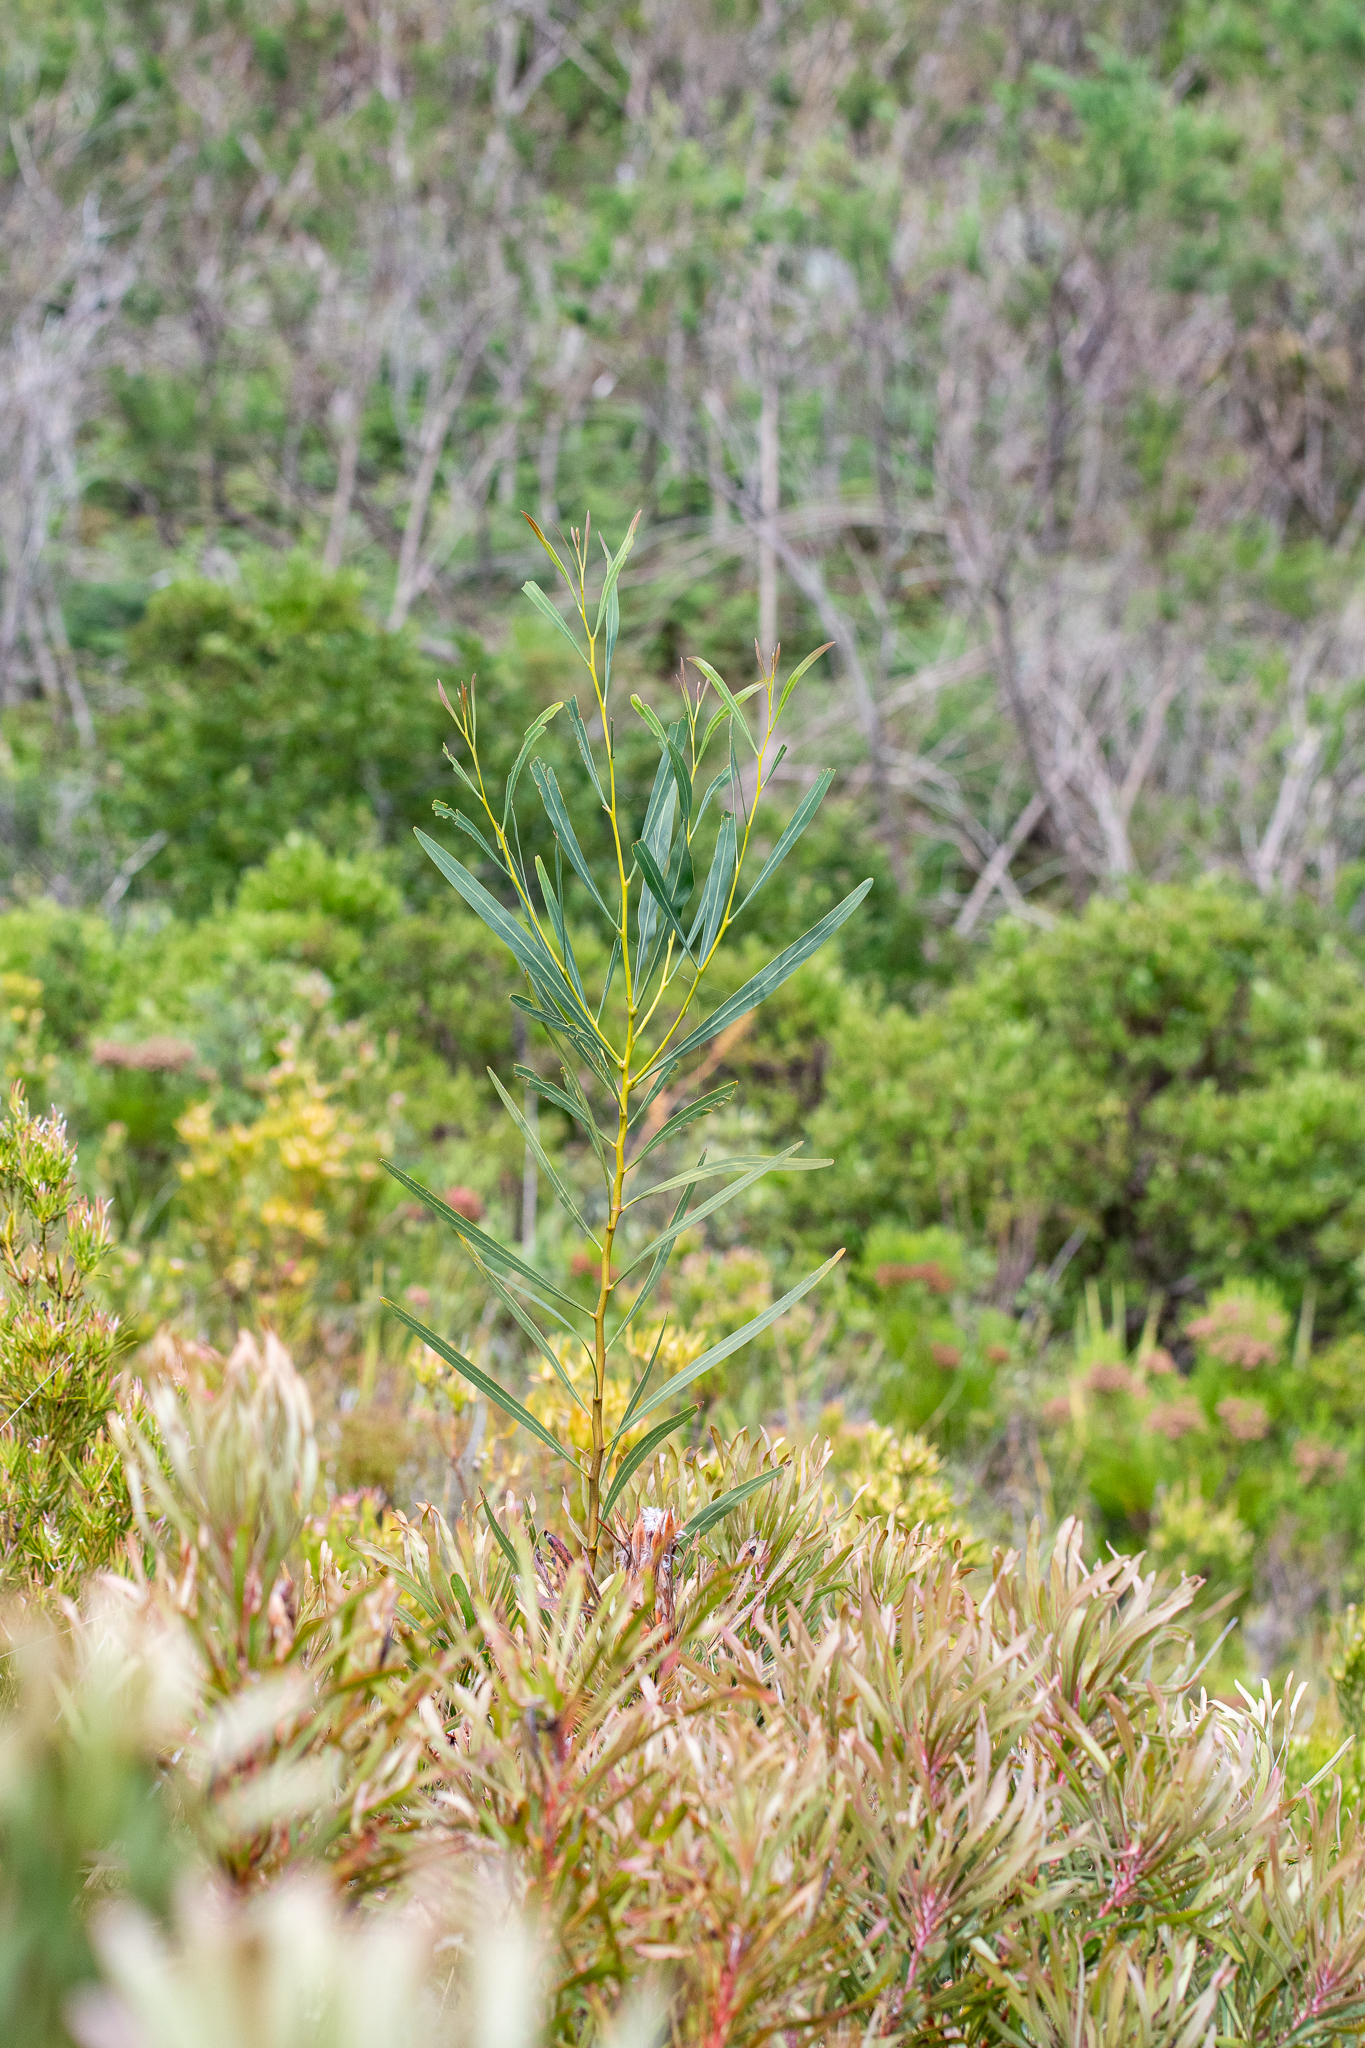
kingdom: Plantae
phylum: Tracheophyta
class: Magnoliopsida
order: Fabales
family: Fabaceae
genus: Acacia
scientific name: Acacia saligna
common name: Orange wattle
